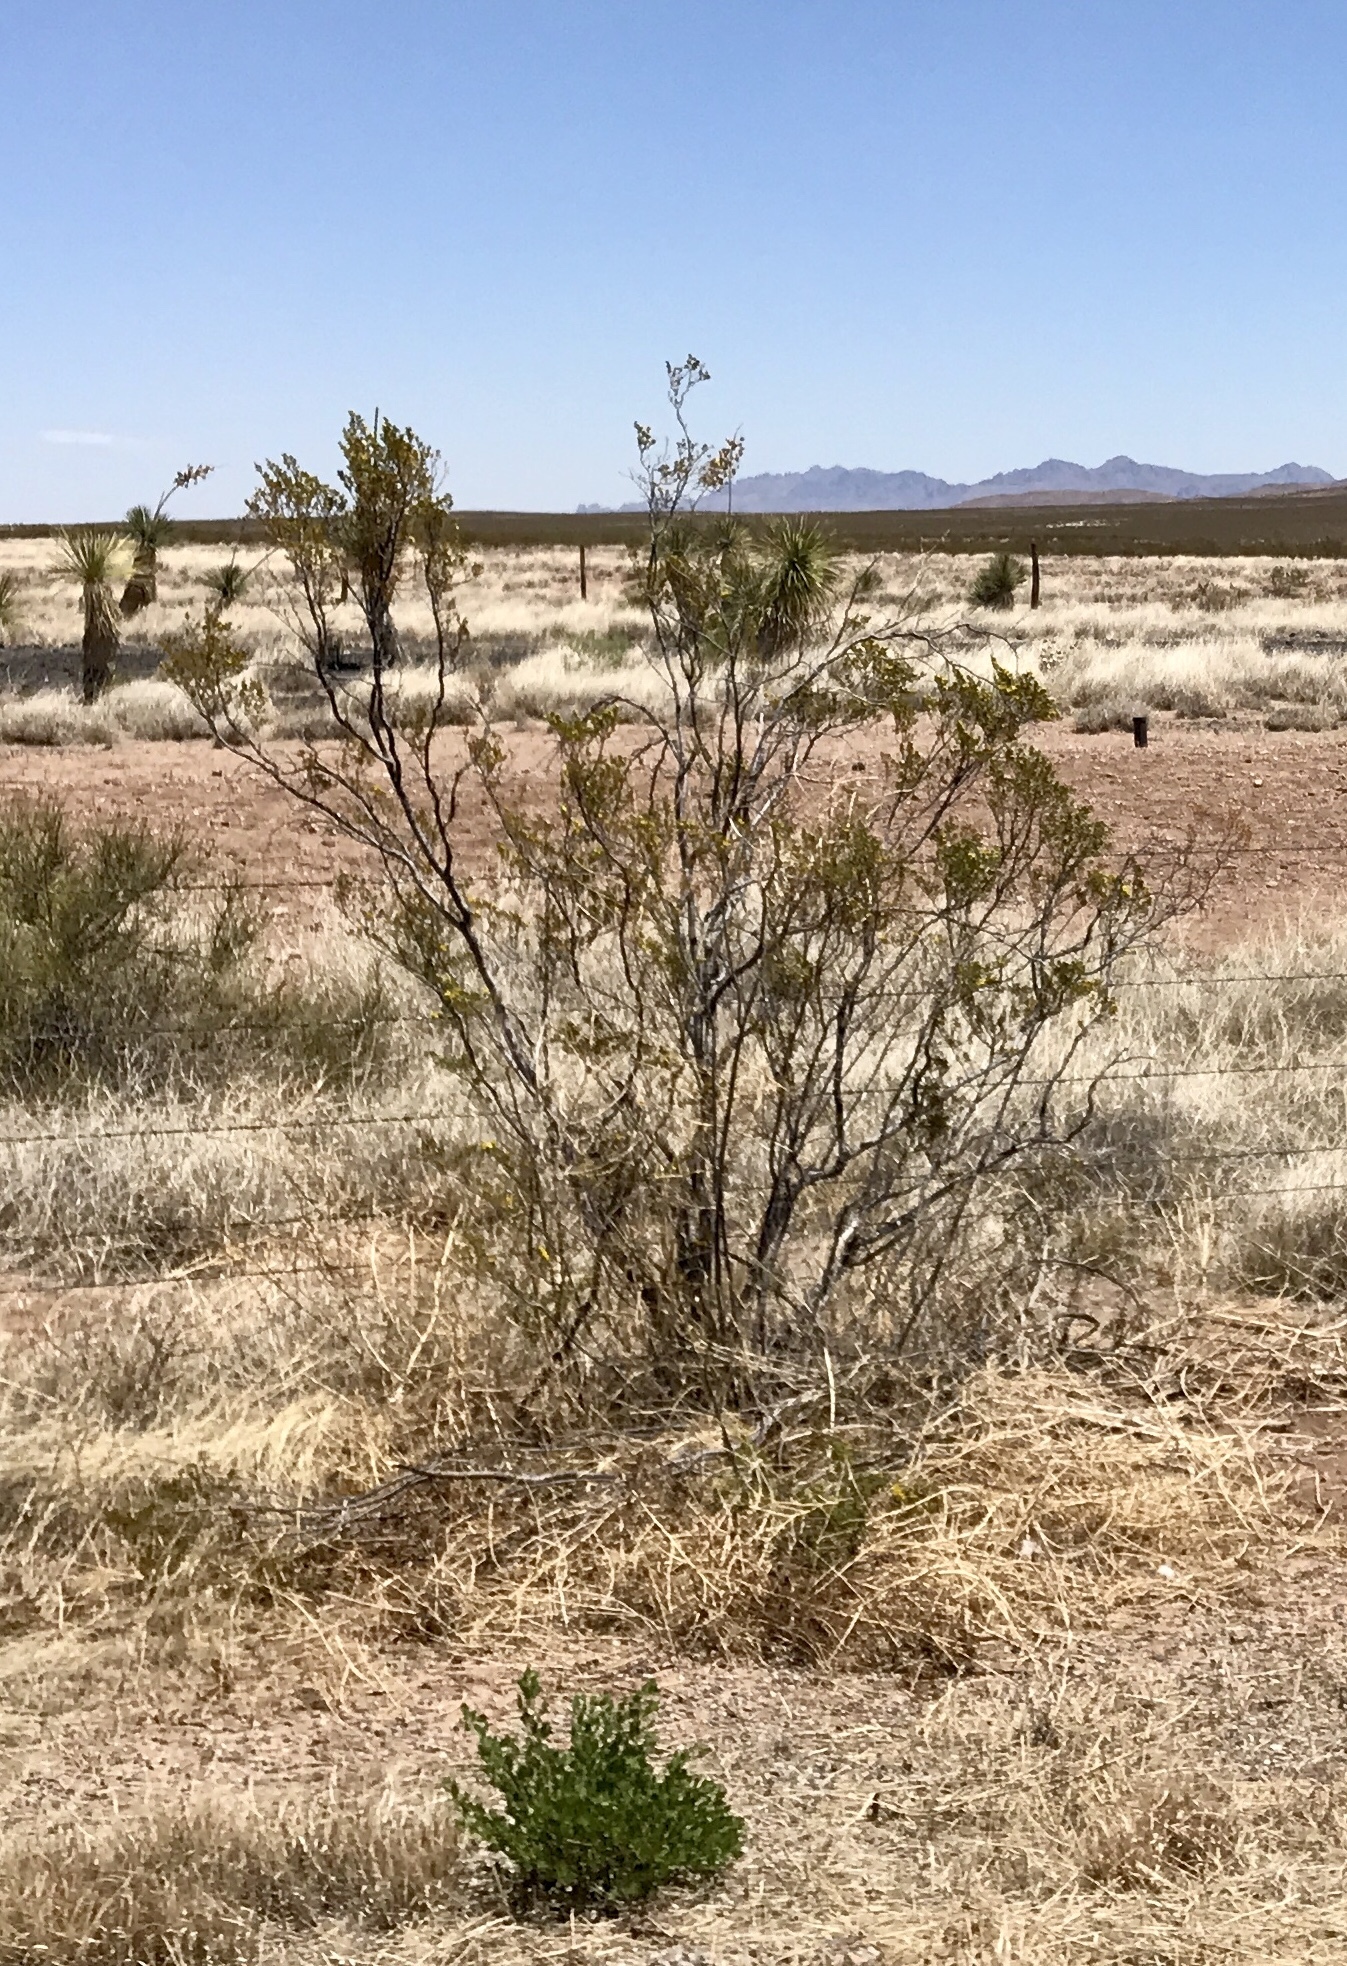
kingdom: Plantae
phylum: Tracheophyta
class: Magnoliopsida
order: Zygophyllales
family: Zygophyllaceae
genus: Larrea
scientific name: Larrea tridentata
